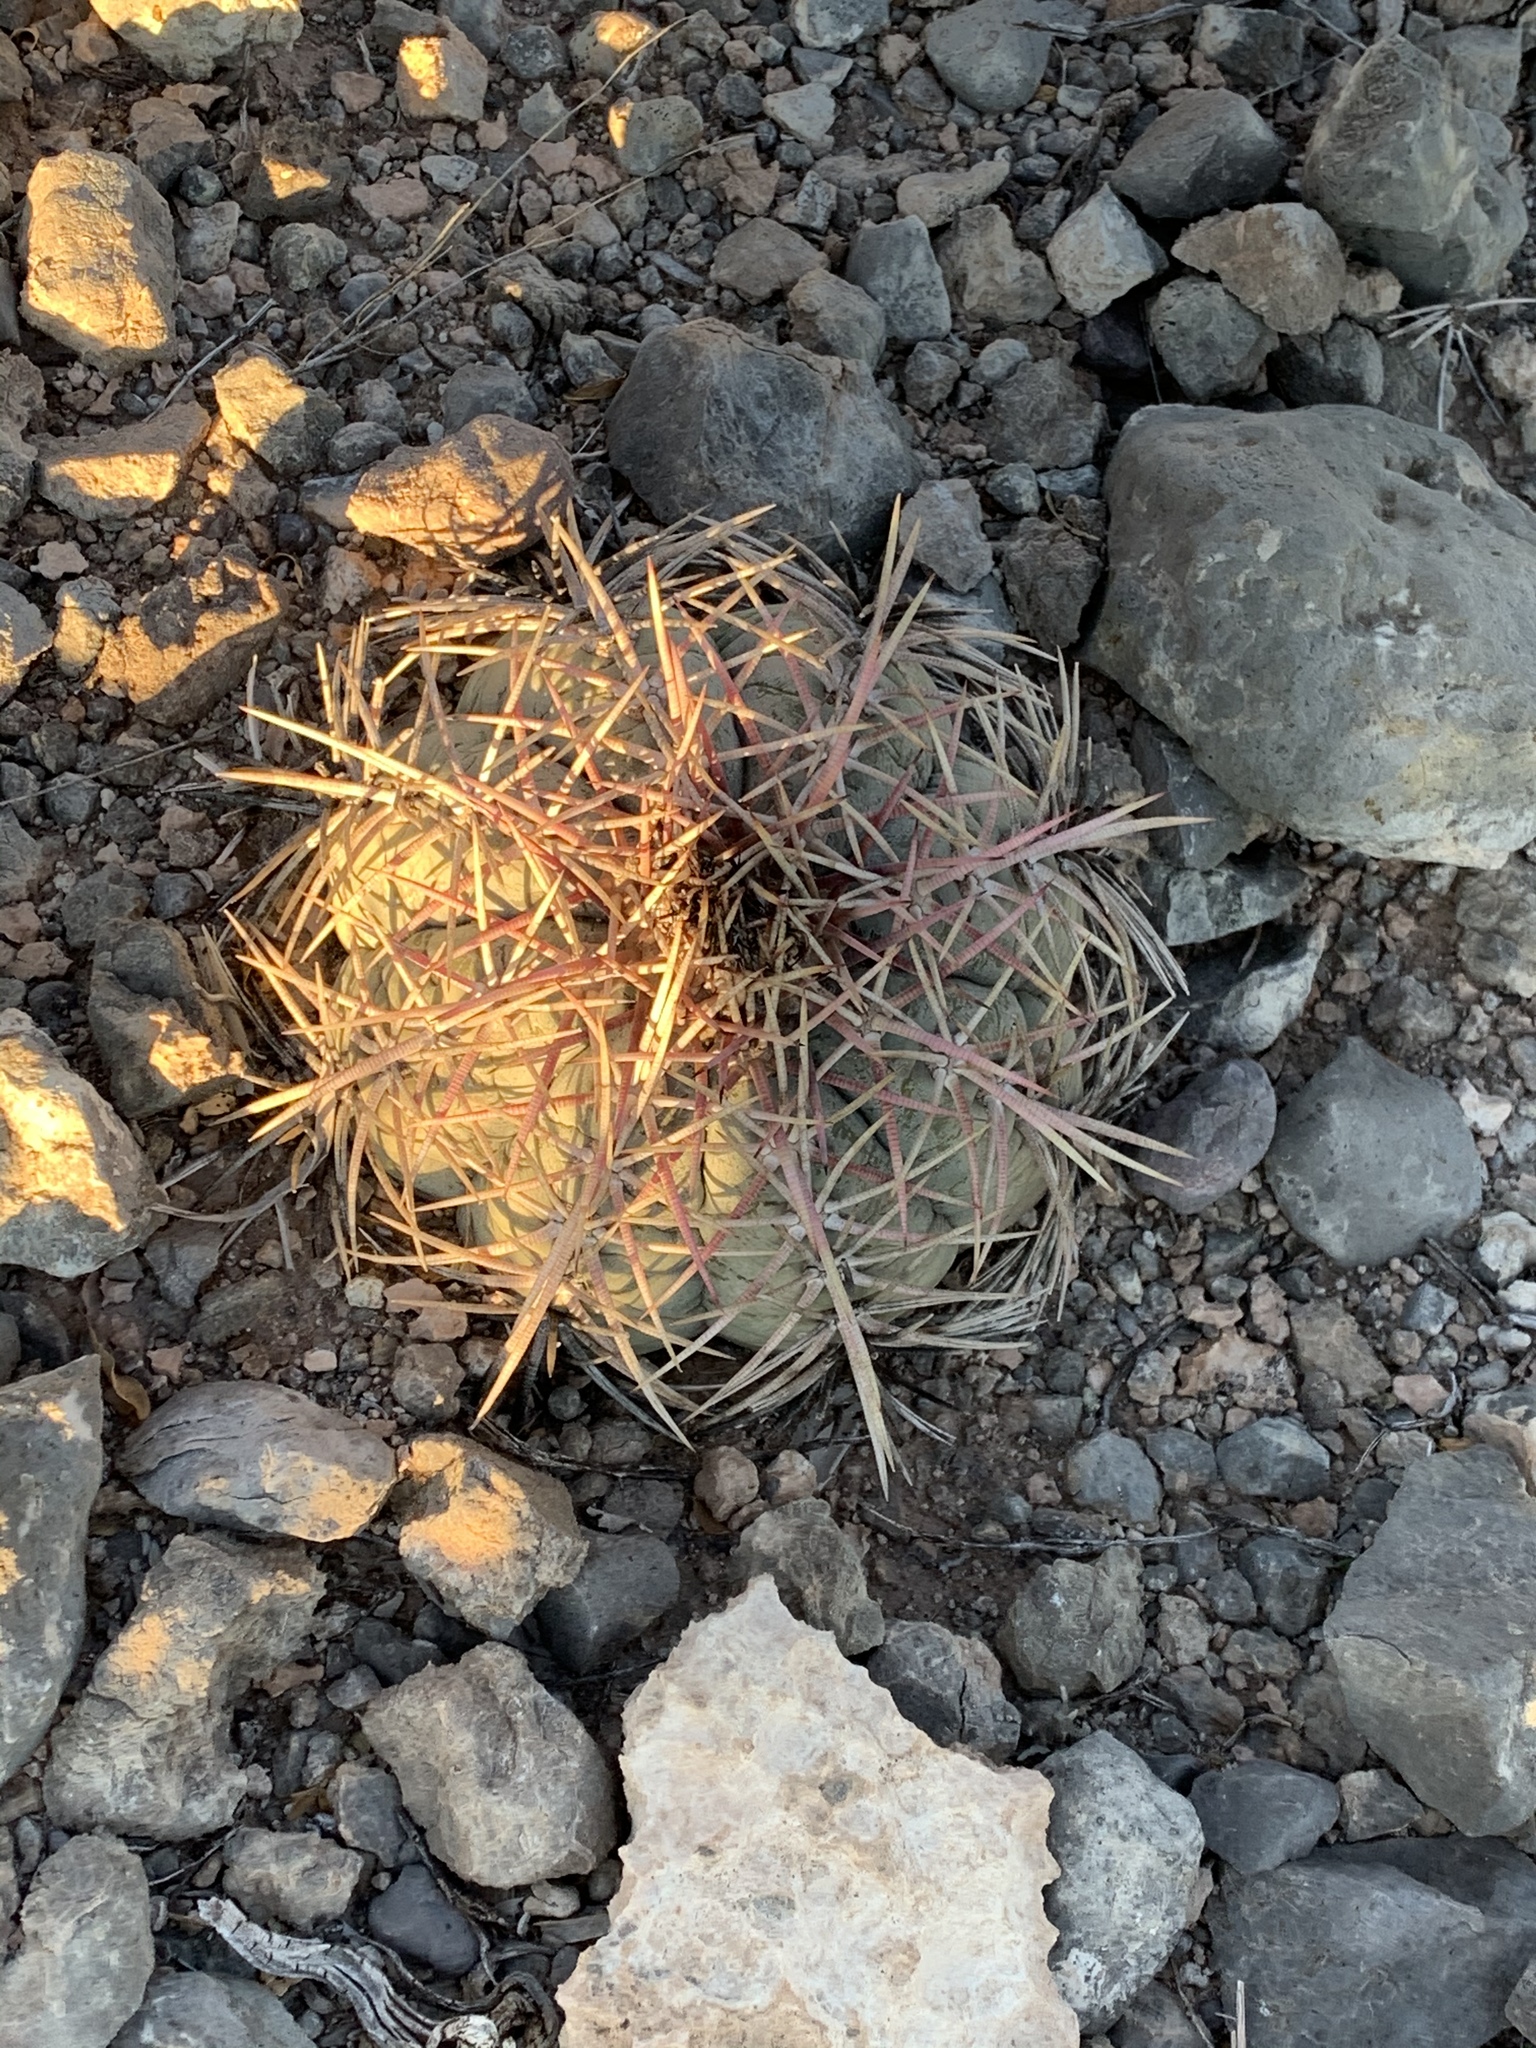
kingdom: Plantae
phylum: Tracheophyta
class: Magnoliopsida
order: Caryophyllales
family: Cactaceae
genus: Echinocactus
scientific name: Echinocactus horizonthalonius
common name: Devilshead
